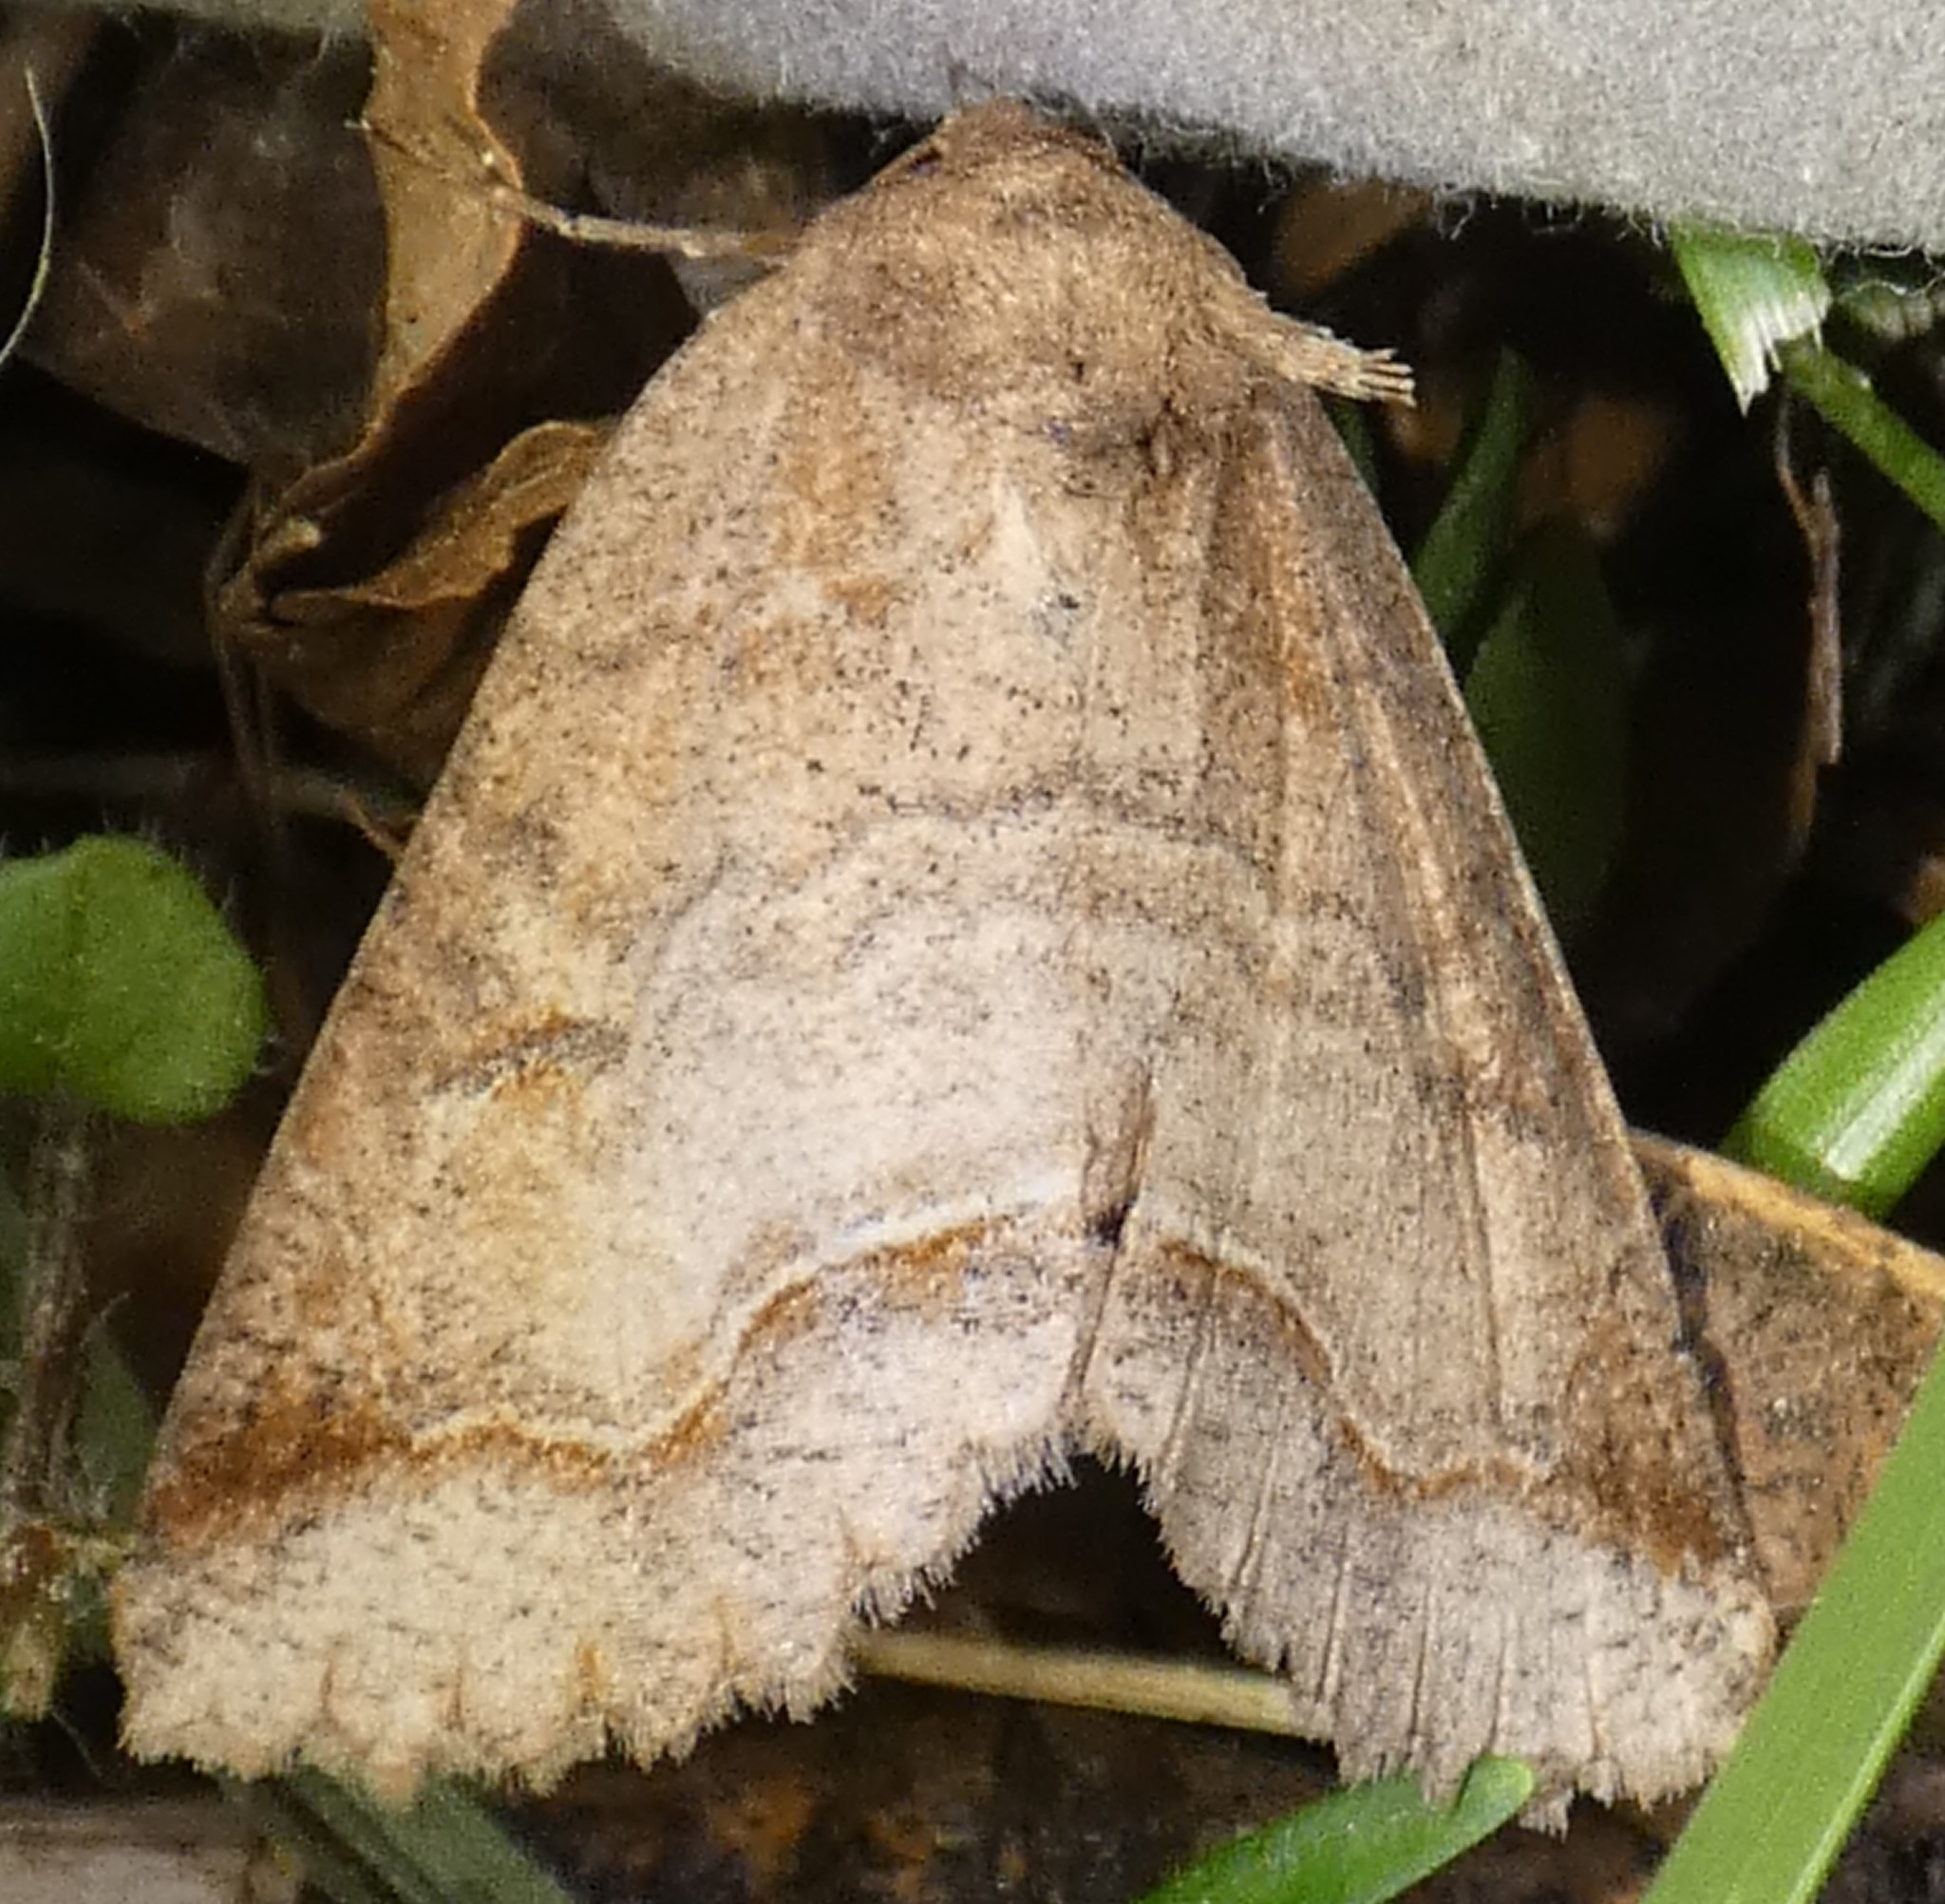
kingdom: Animalia
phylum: Arthropoda
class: Insecta
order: Lepidoptera
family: Erebidae
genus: Zale
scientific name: Zale unilineata
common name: One-lined zale moth
